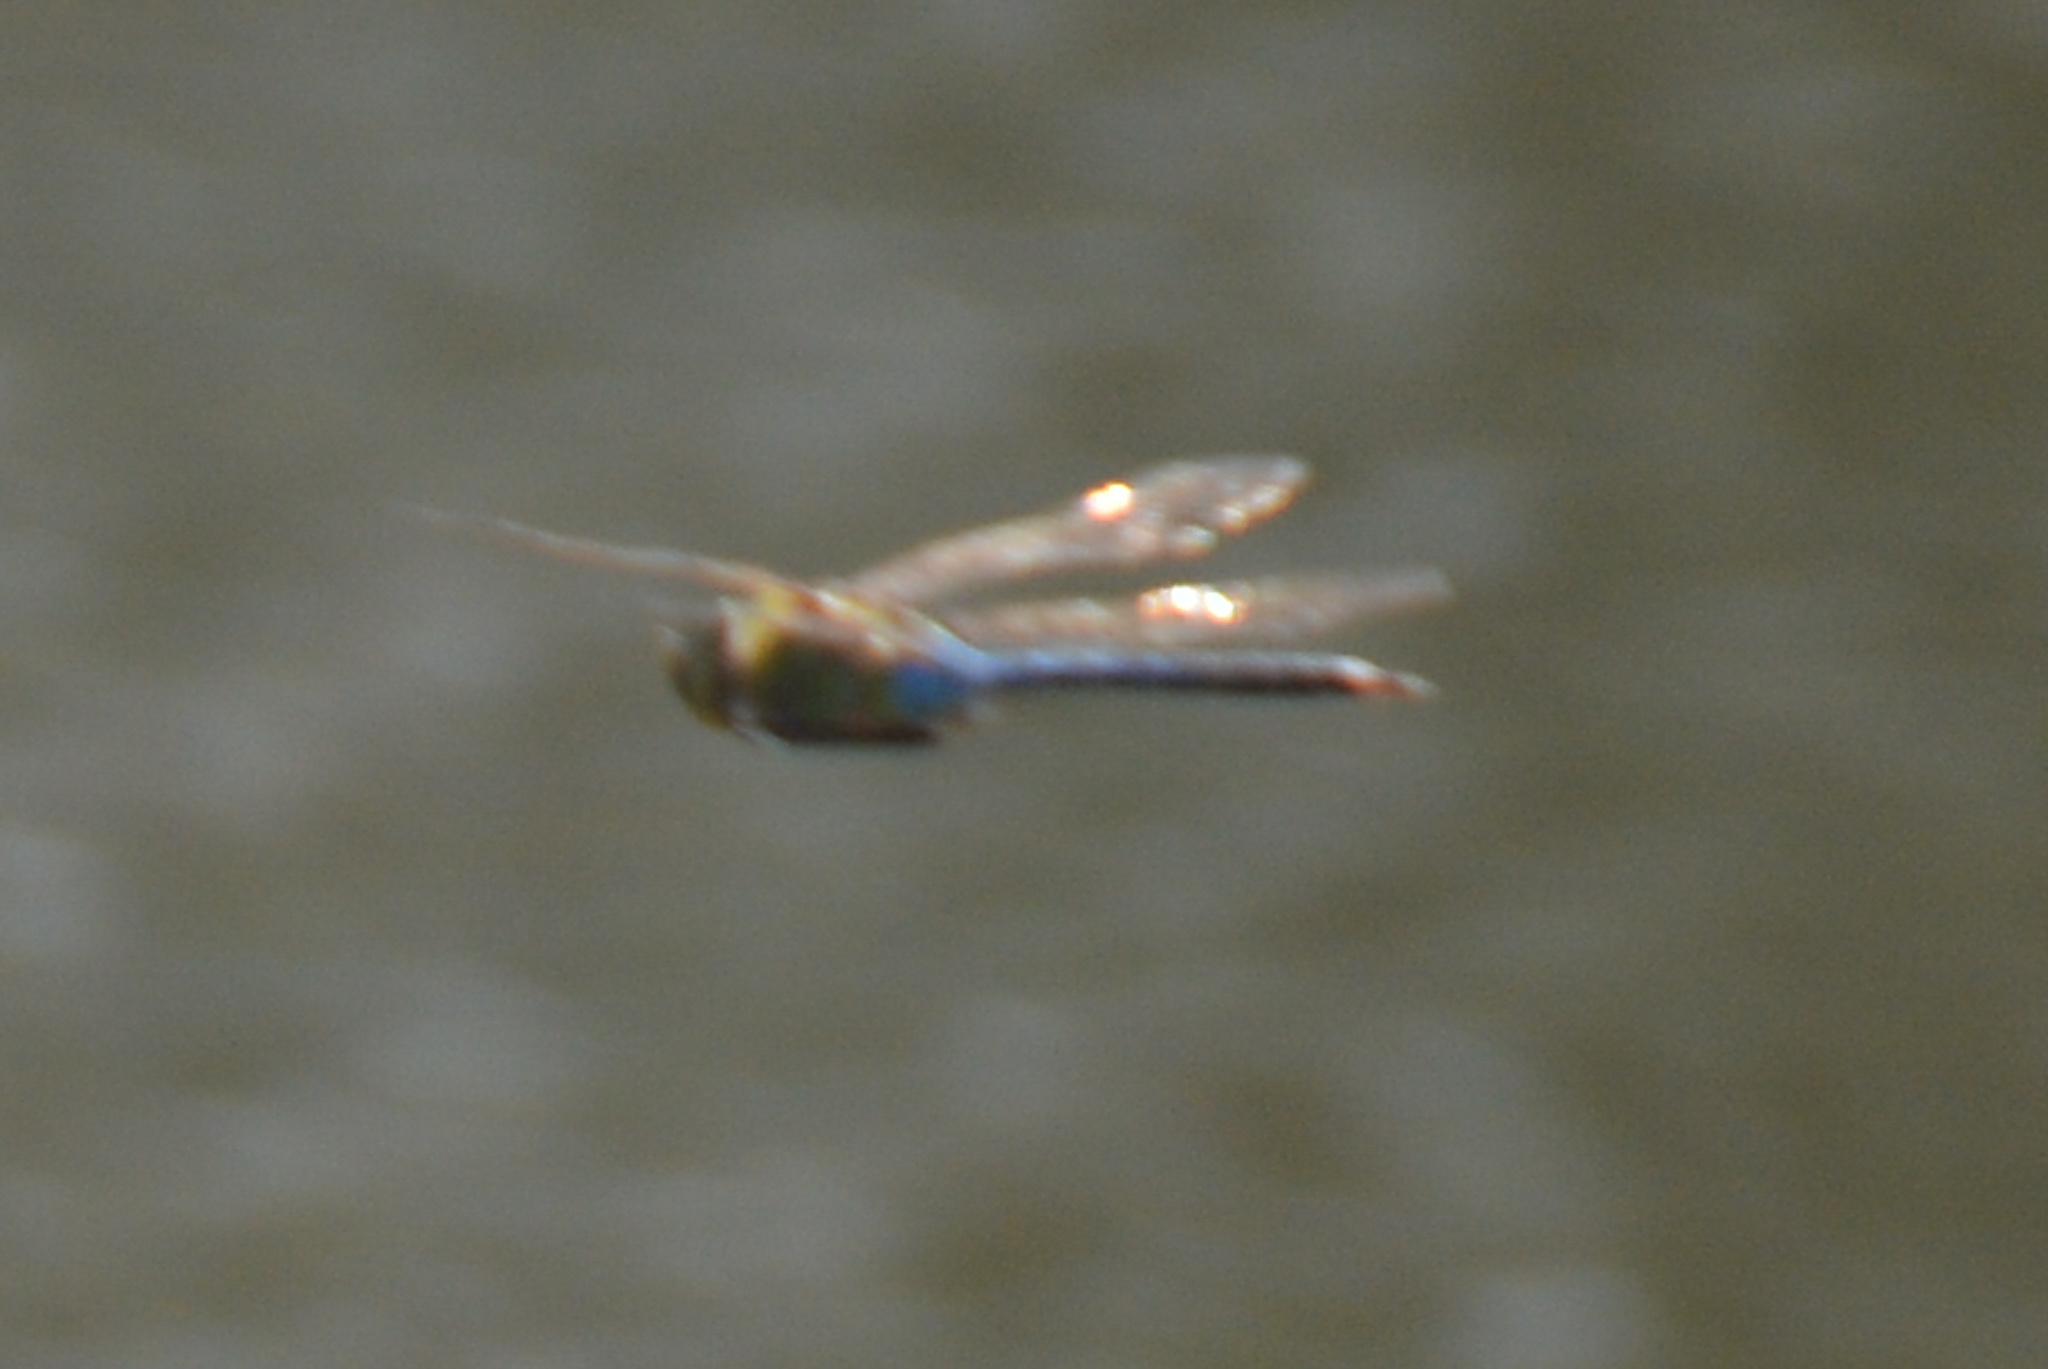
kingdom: Animalia
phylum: Arthropoda
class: Insecta
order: Odonata
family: Aeshnidae
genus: Anax
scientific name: Anax junius
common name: Common green darner
